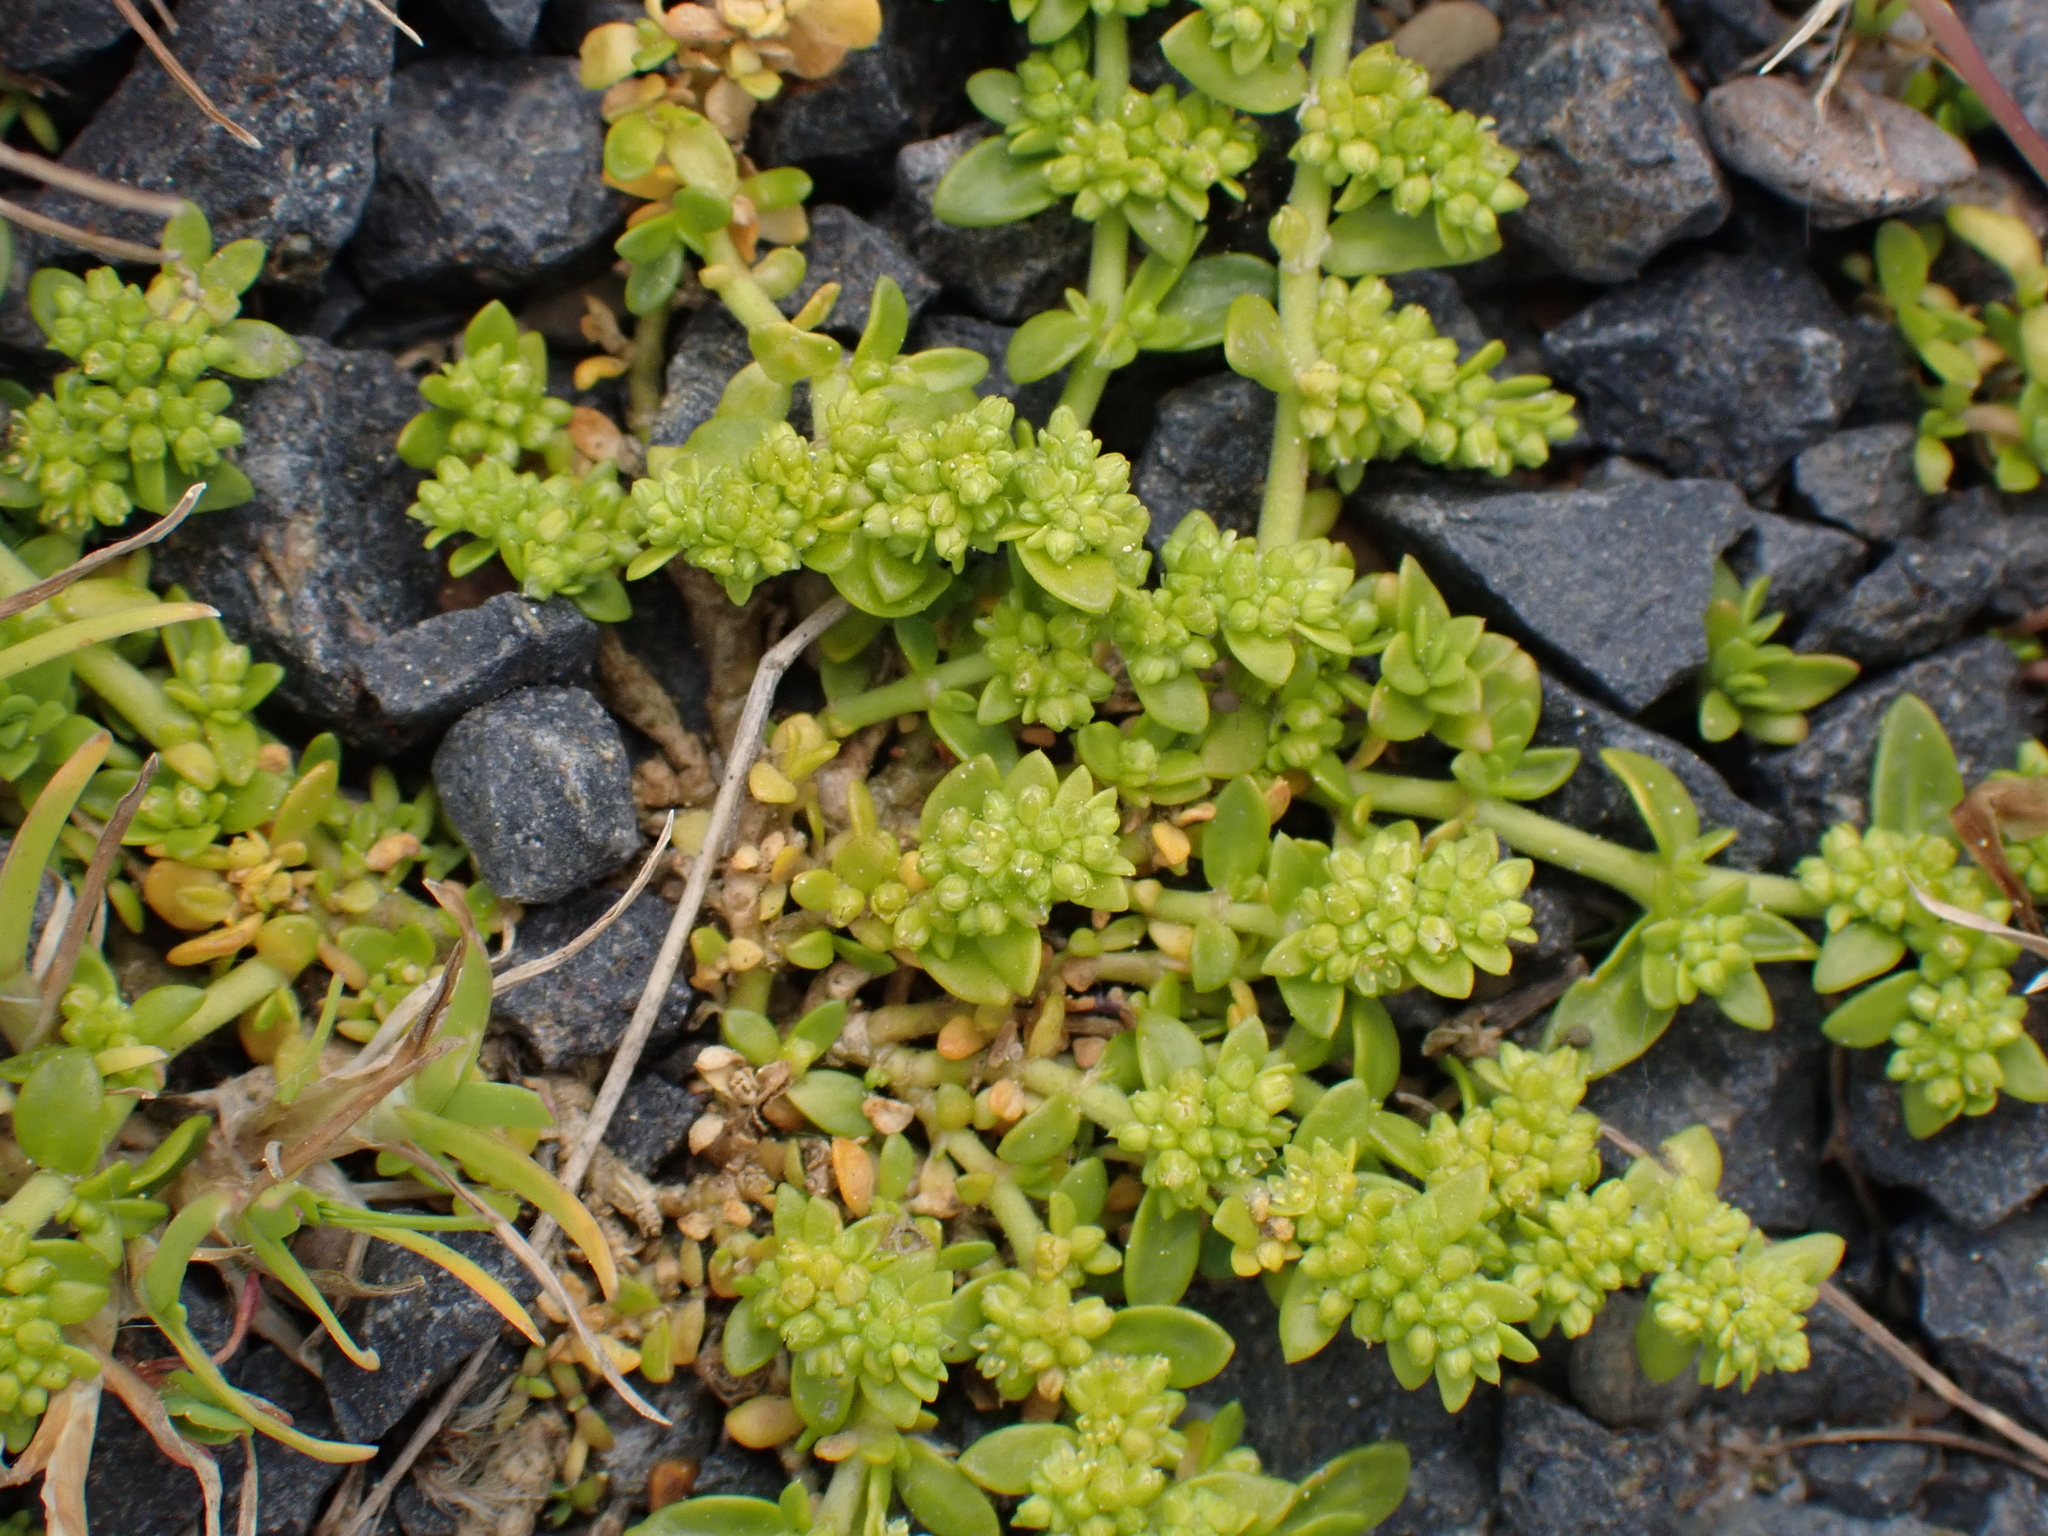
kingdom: Plantae
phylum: Tracheophyta
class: Magnoliopsida
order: Caryophyllales
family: Caryophyllaceae
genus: Herniaria
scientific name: Herniaria glabra
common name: Smooth rupturewort
